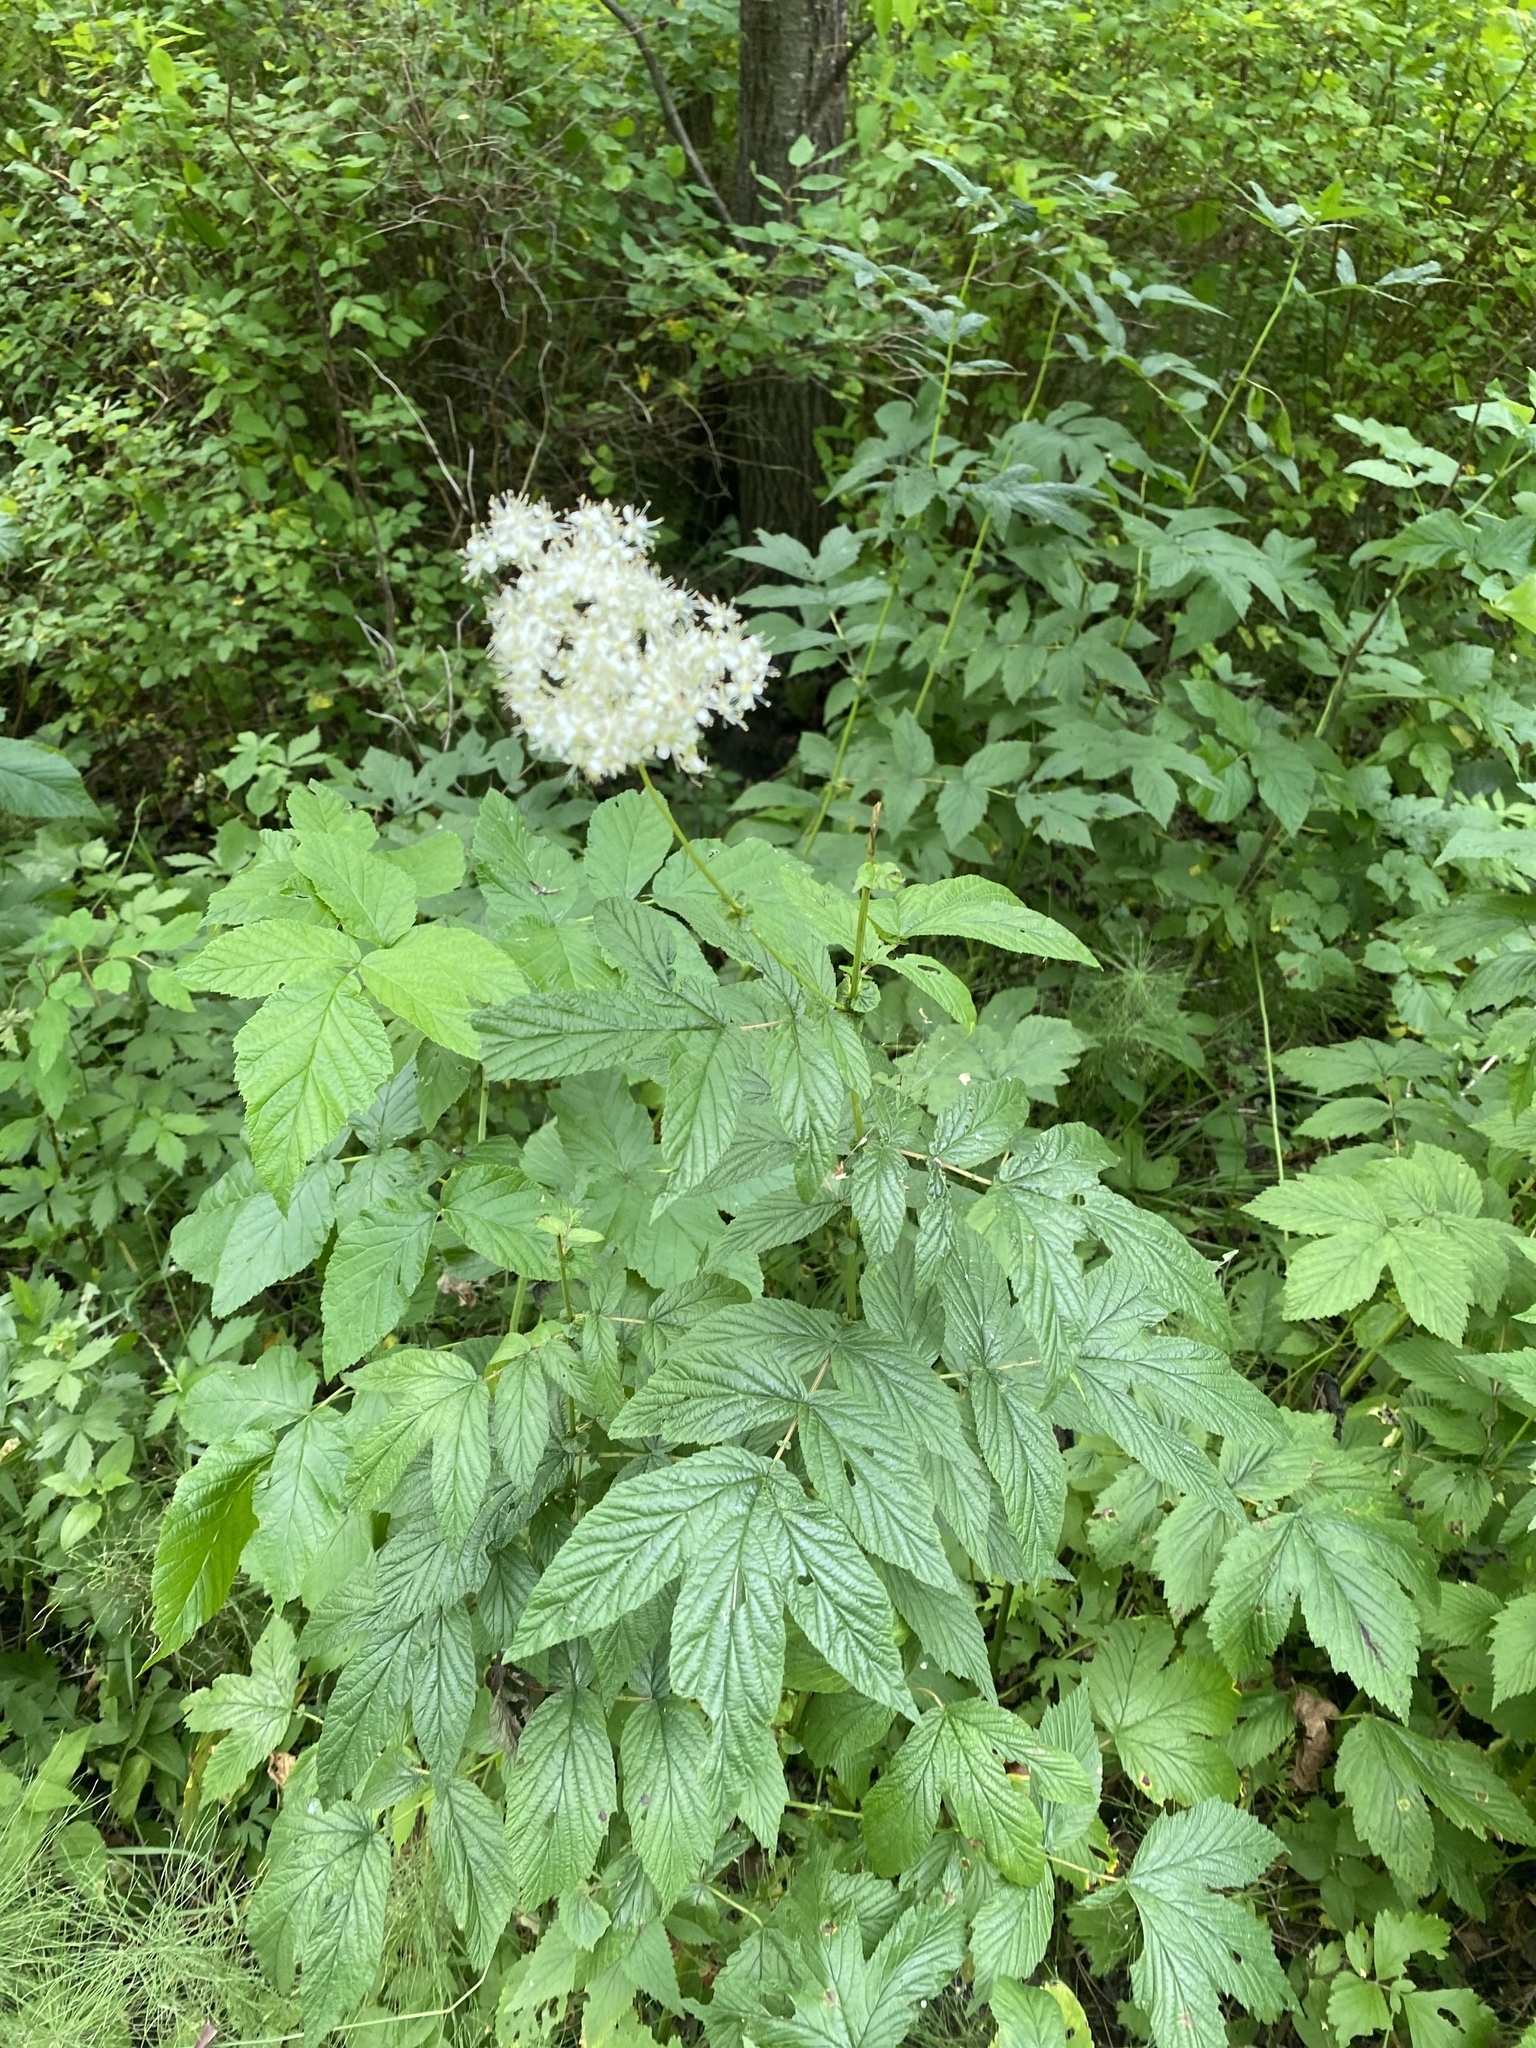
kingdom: Plantae
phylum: Tracheophyta
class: Magnoliopsida
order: Rosales
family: Rosaceae
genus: Filipendula
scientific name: Filipendula ulmaria
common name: Meadowsweet
